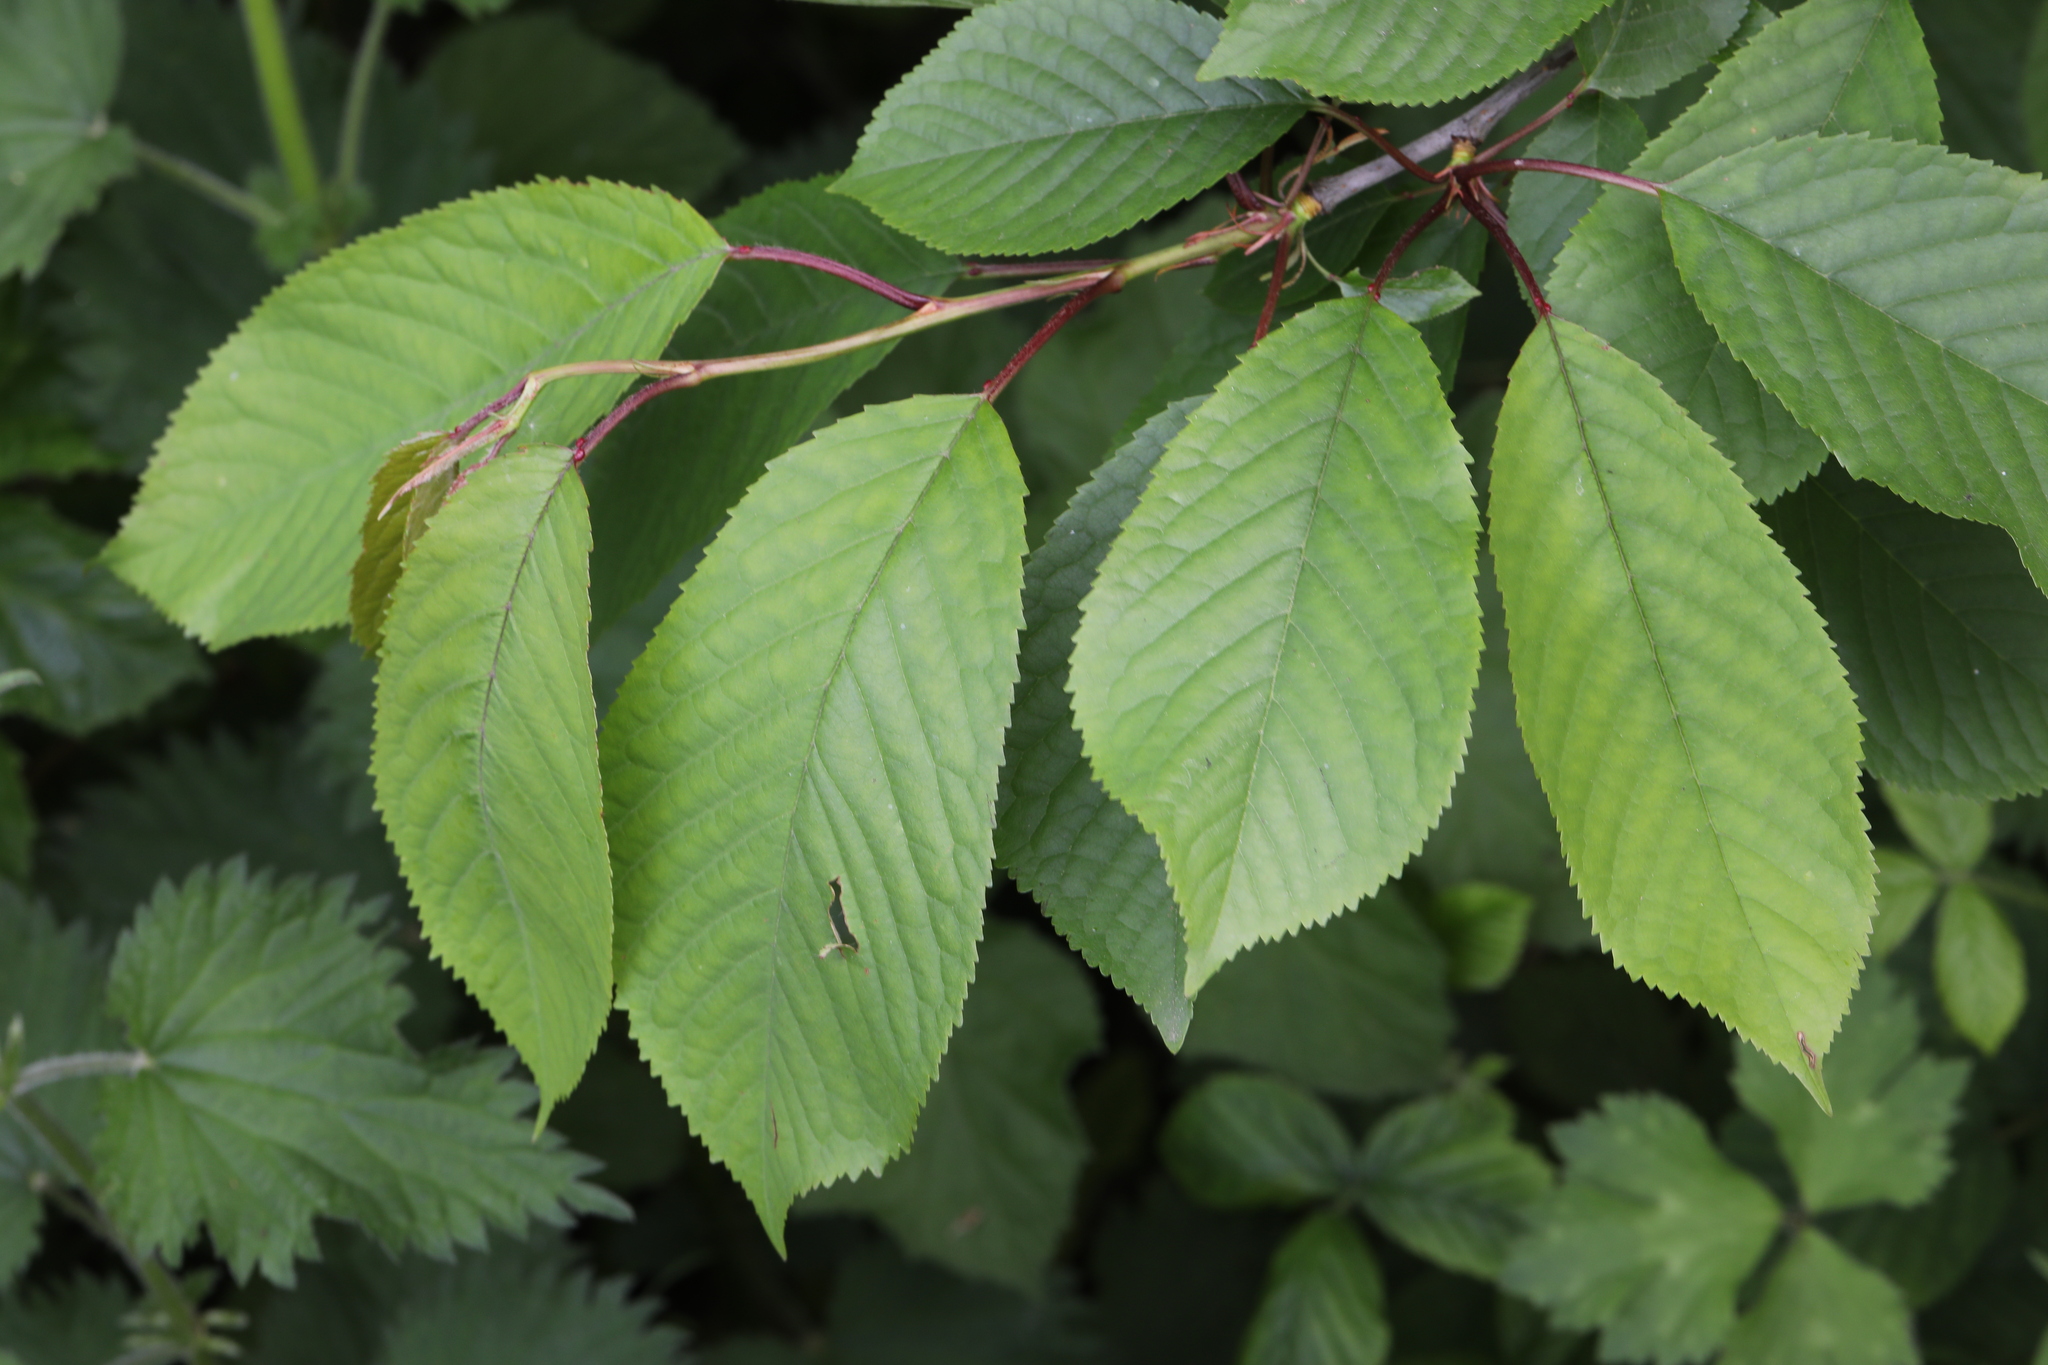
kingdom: Plantae
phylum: Tracheophyta
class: Magnoliopsida
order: Rosales
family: Rosaceae
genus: Prunus
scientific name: Prunus avium
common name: Sweet cherry
